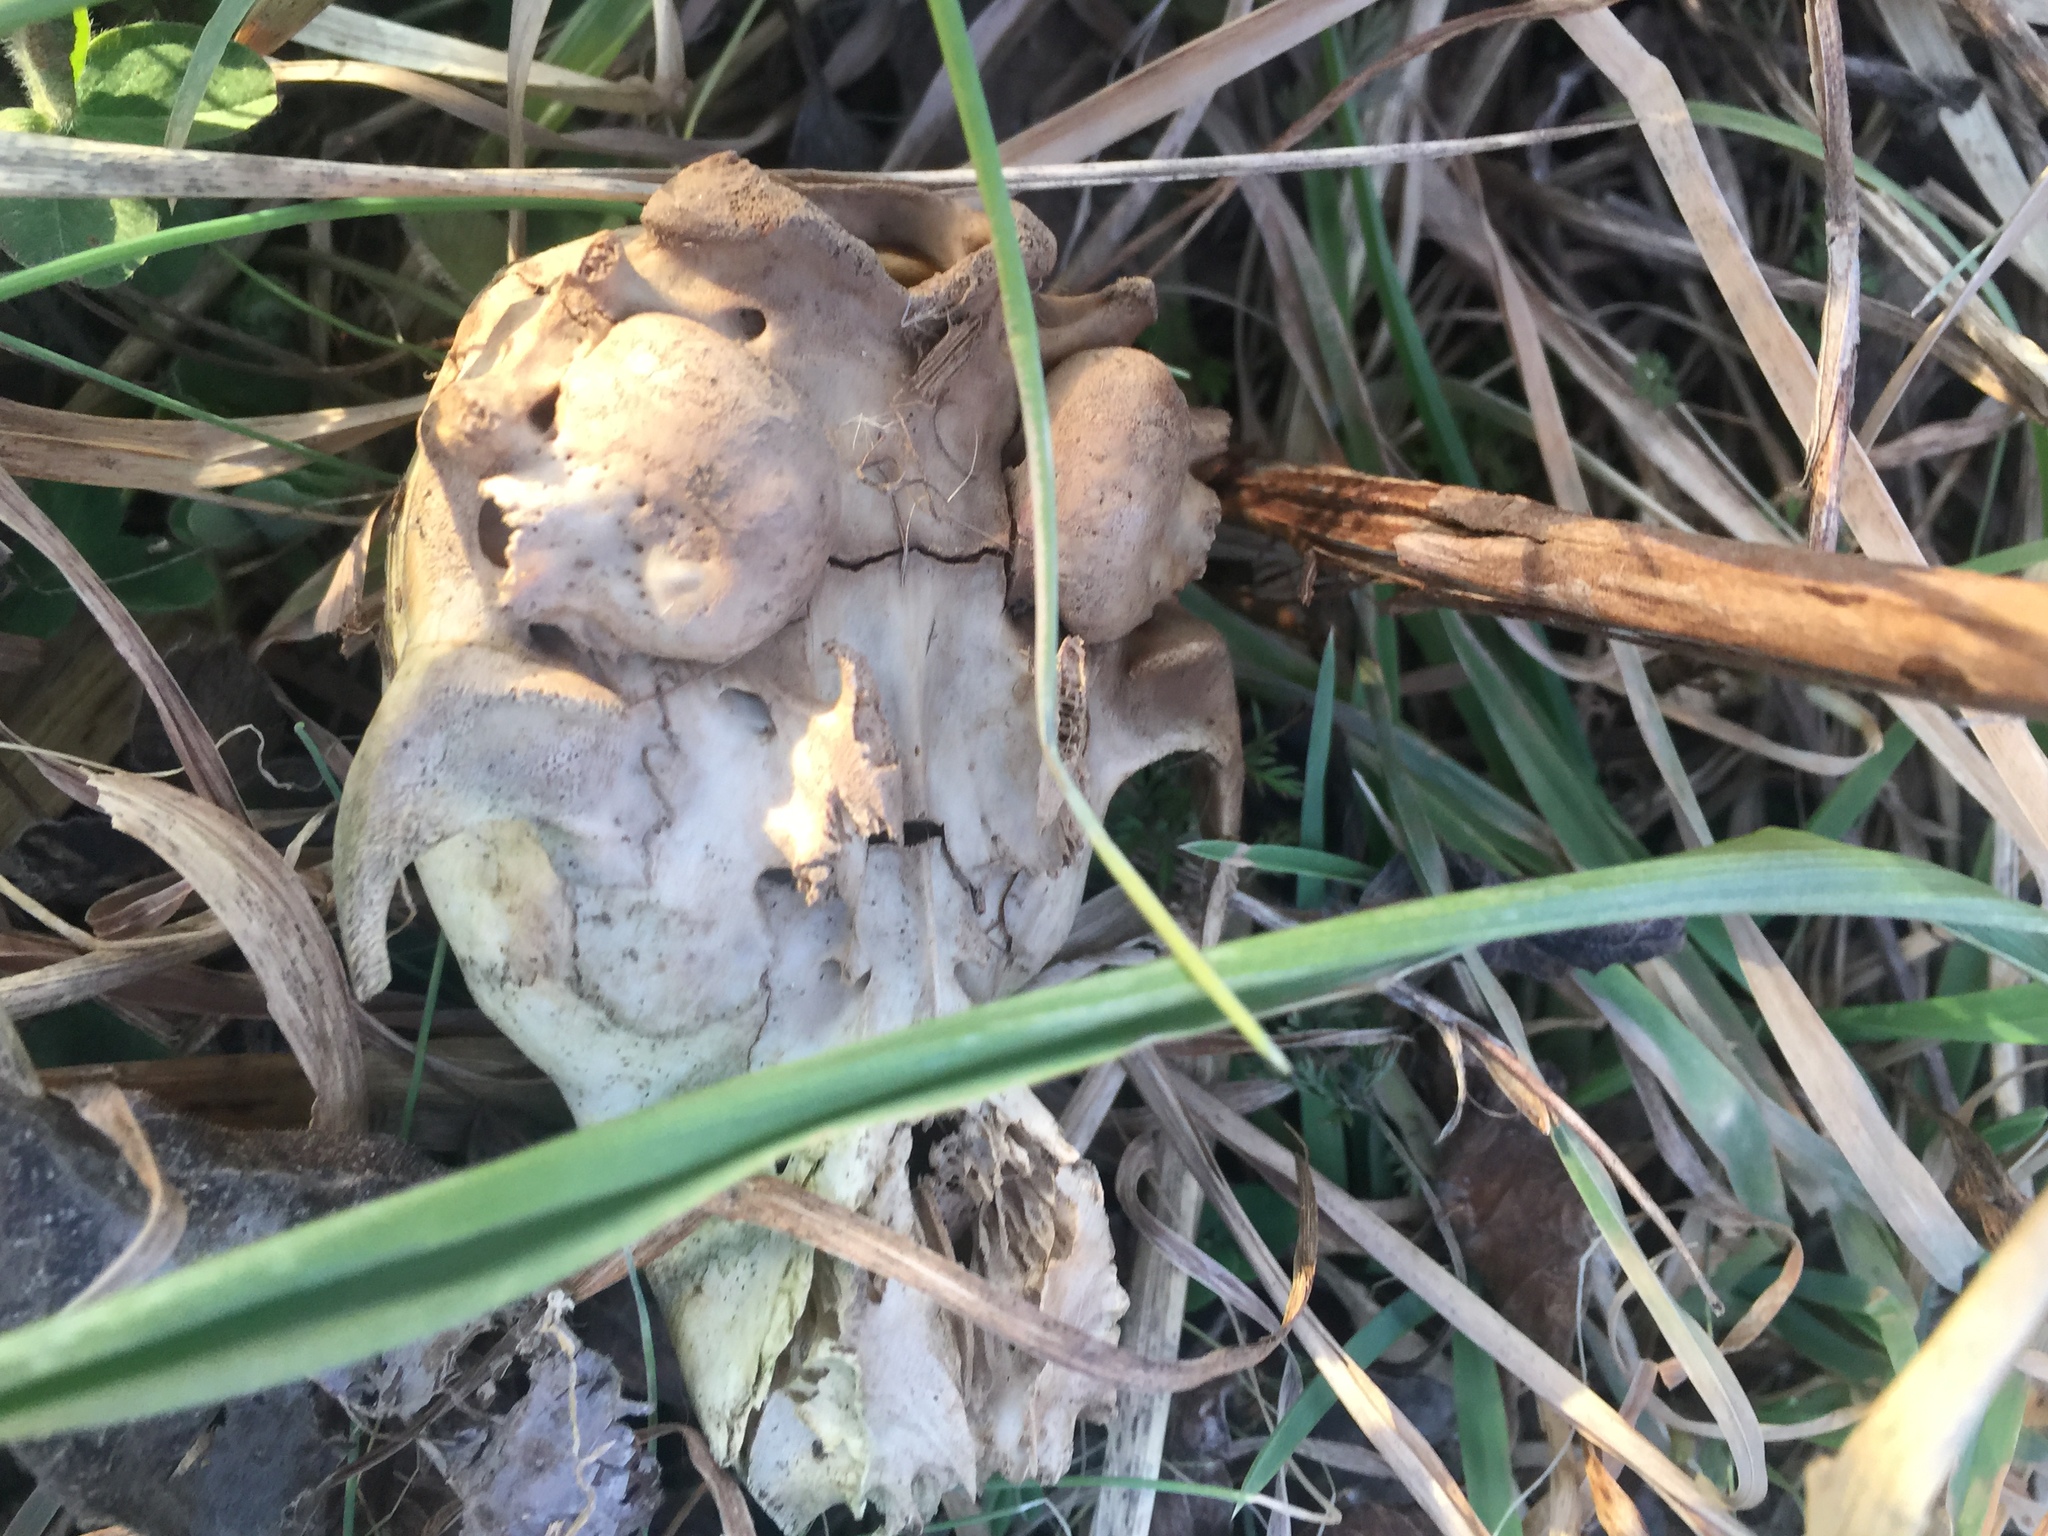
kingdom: Animalia
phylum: Chordata
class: Mammalia
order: Carnivora
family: Procyonidae
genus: Procyon
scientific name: Procyon lotor
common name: Raccoon
